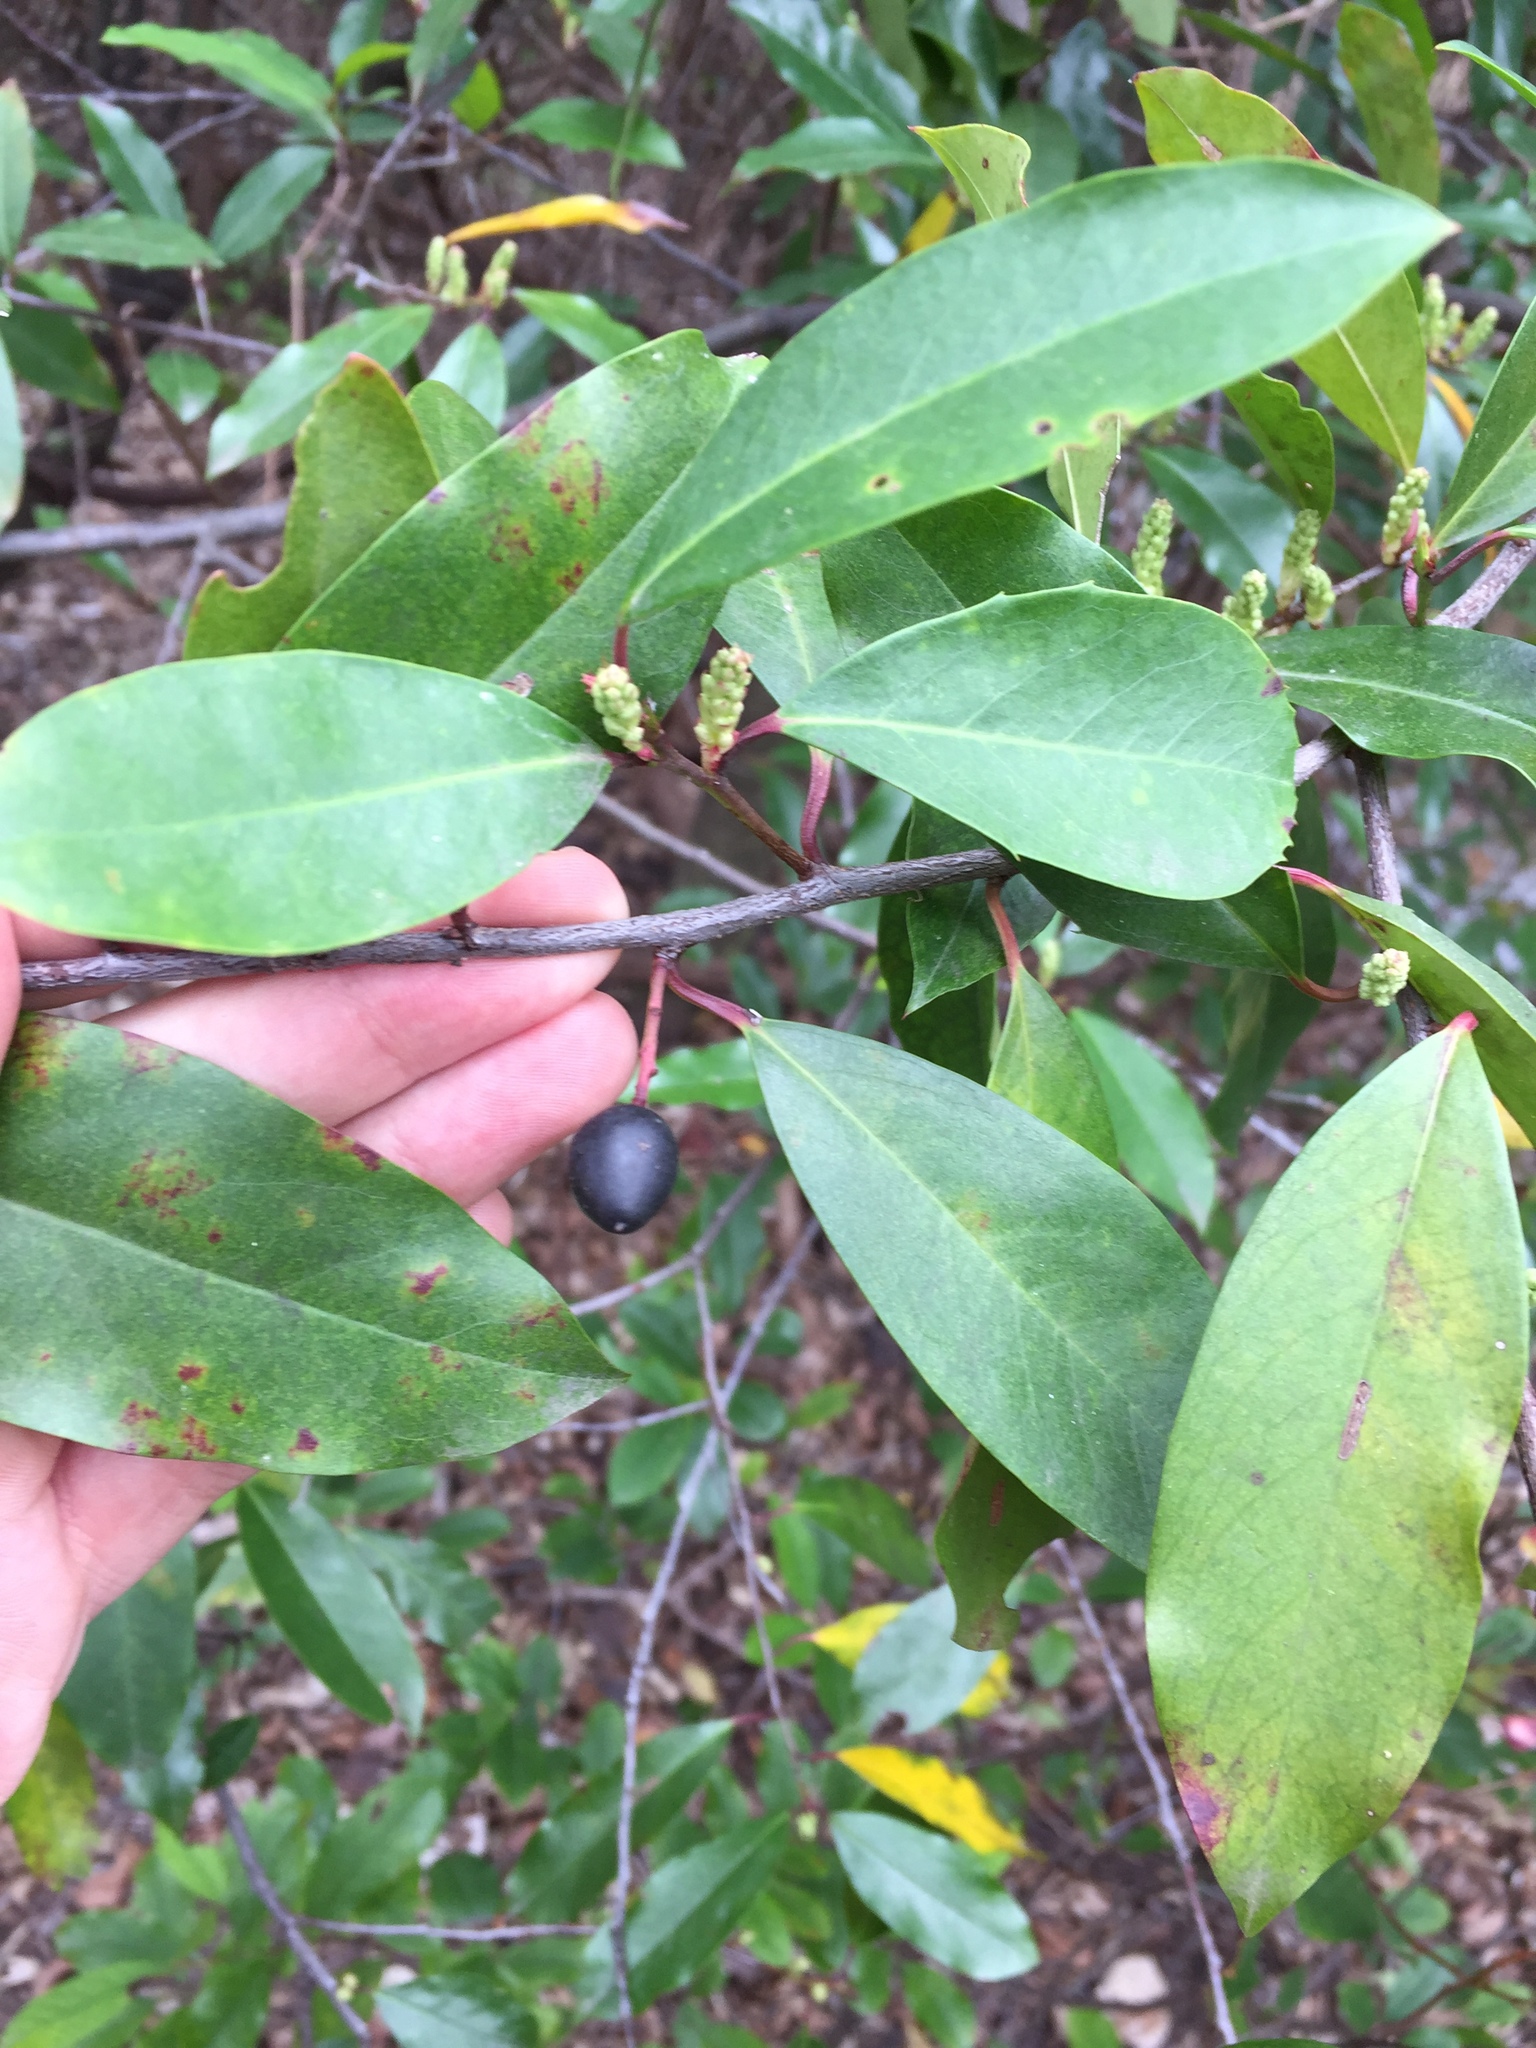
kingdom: Plantae
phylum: Tracheophyta
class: Magnoliopsida
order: Rosales
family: Rosaceae
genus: Prunus
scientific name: Prunus caroliniana
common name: Carolina laurel cherry
